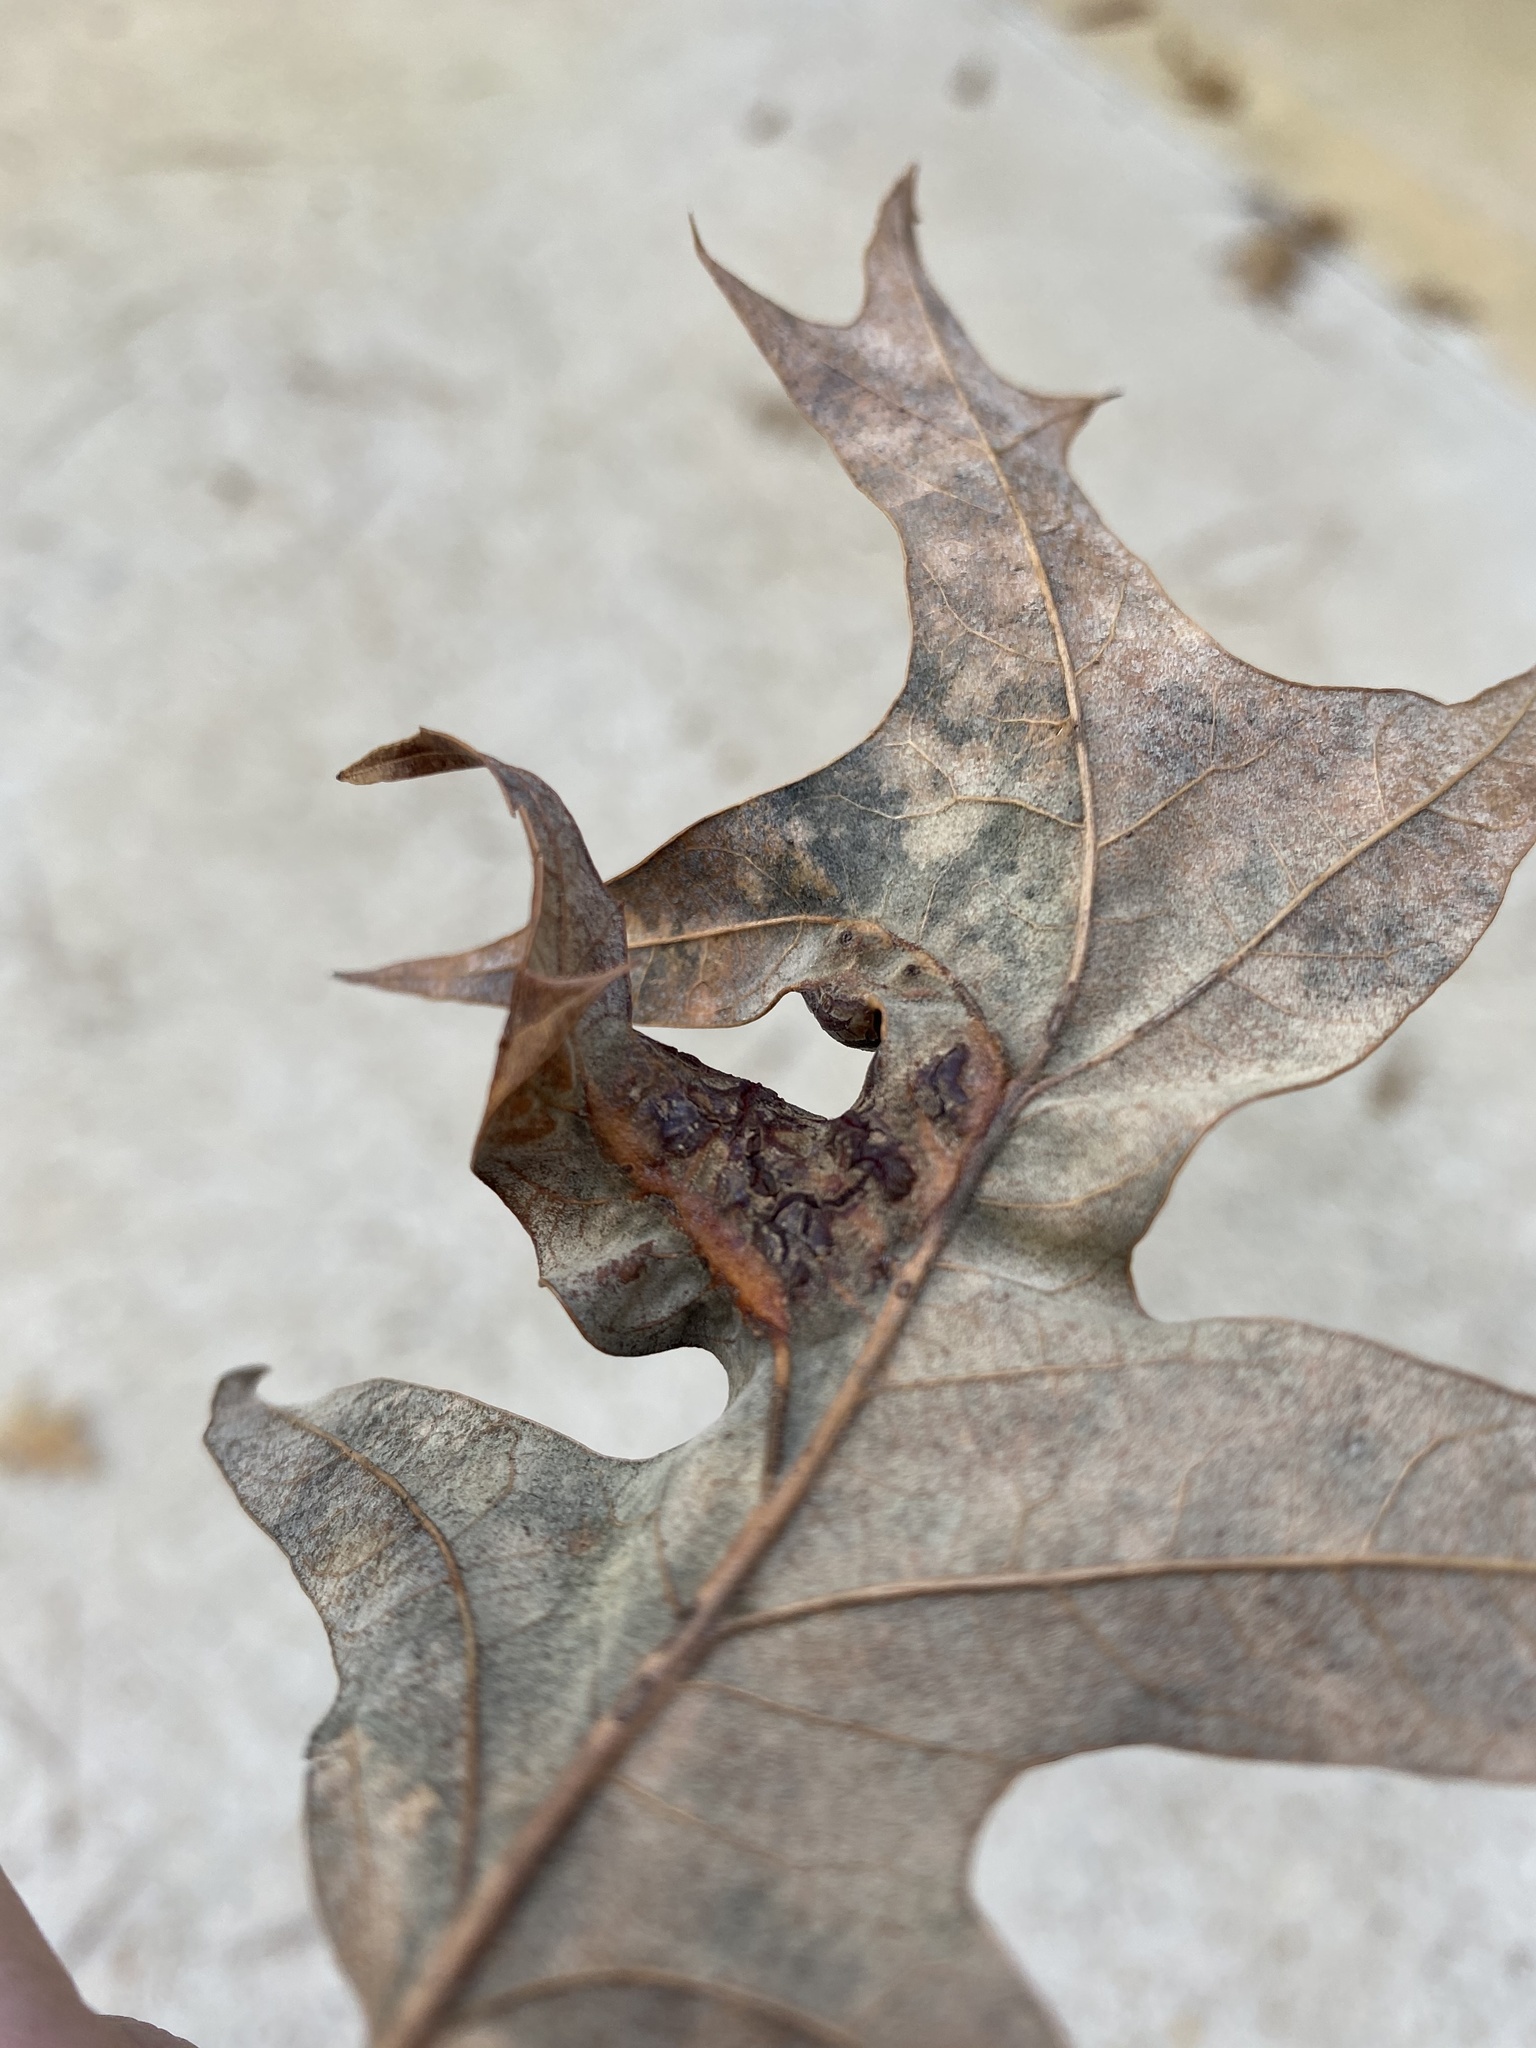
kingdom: Animalia
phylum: Arthropoda
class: Insecta
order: Diptera
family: Cecidomyiidae
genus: Polystepha
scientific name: Polystepha pilulae
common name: Oak leaf gall midge
